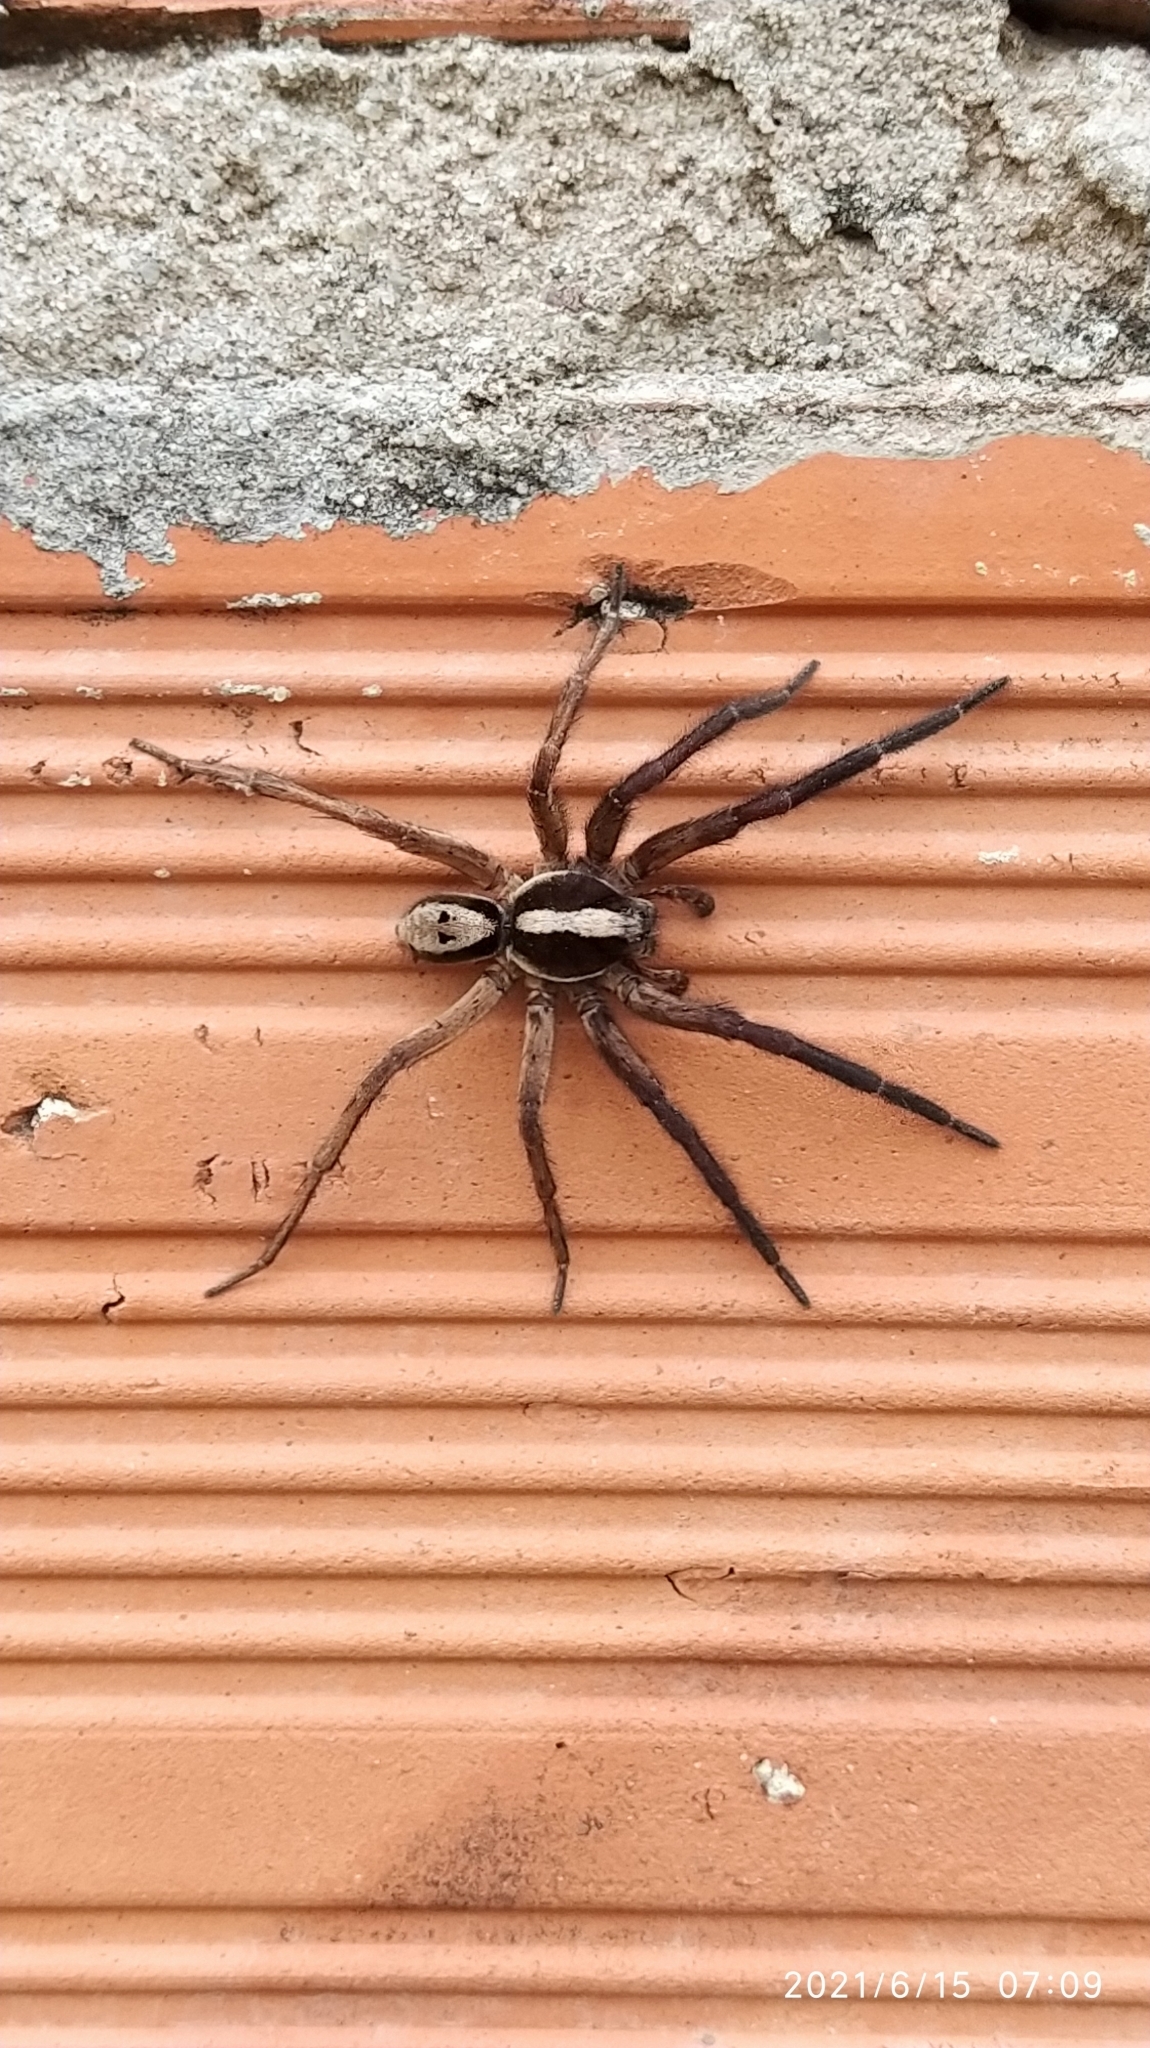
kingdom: Animalia
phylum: Arthropoda
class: Arachnida
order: Araneae
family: Lycosidae
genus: Hogna
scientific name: Hogna gumia
